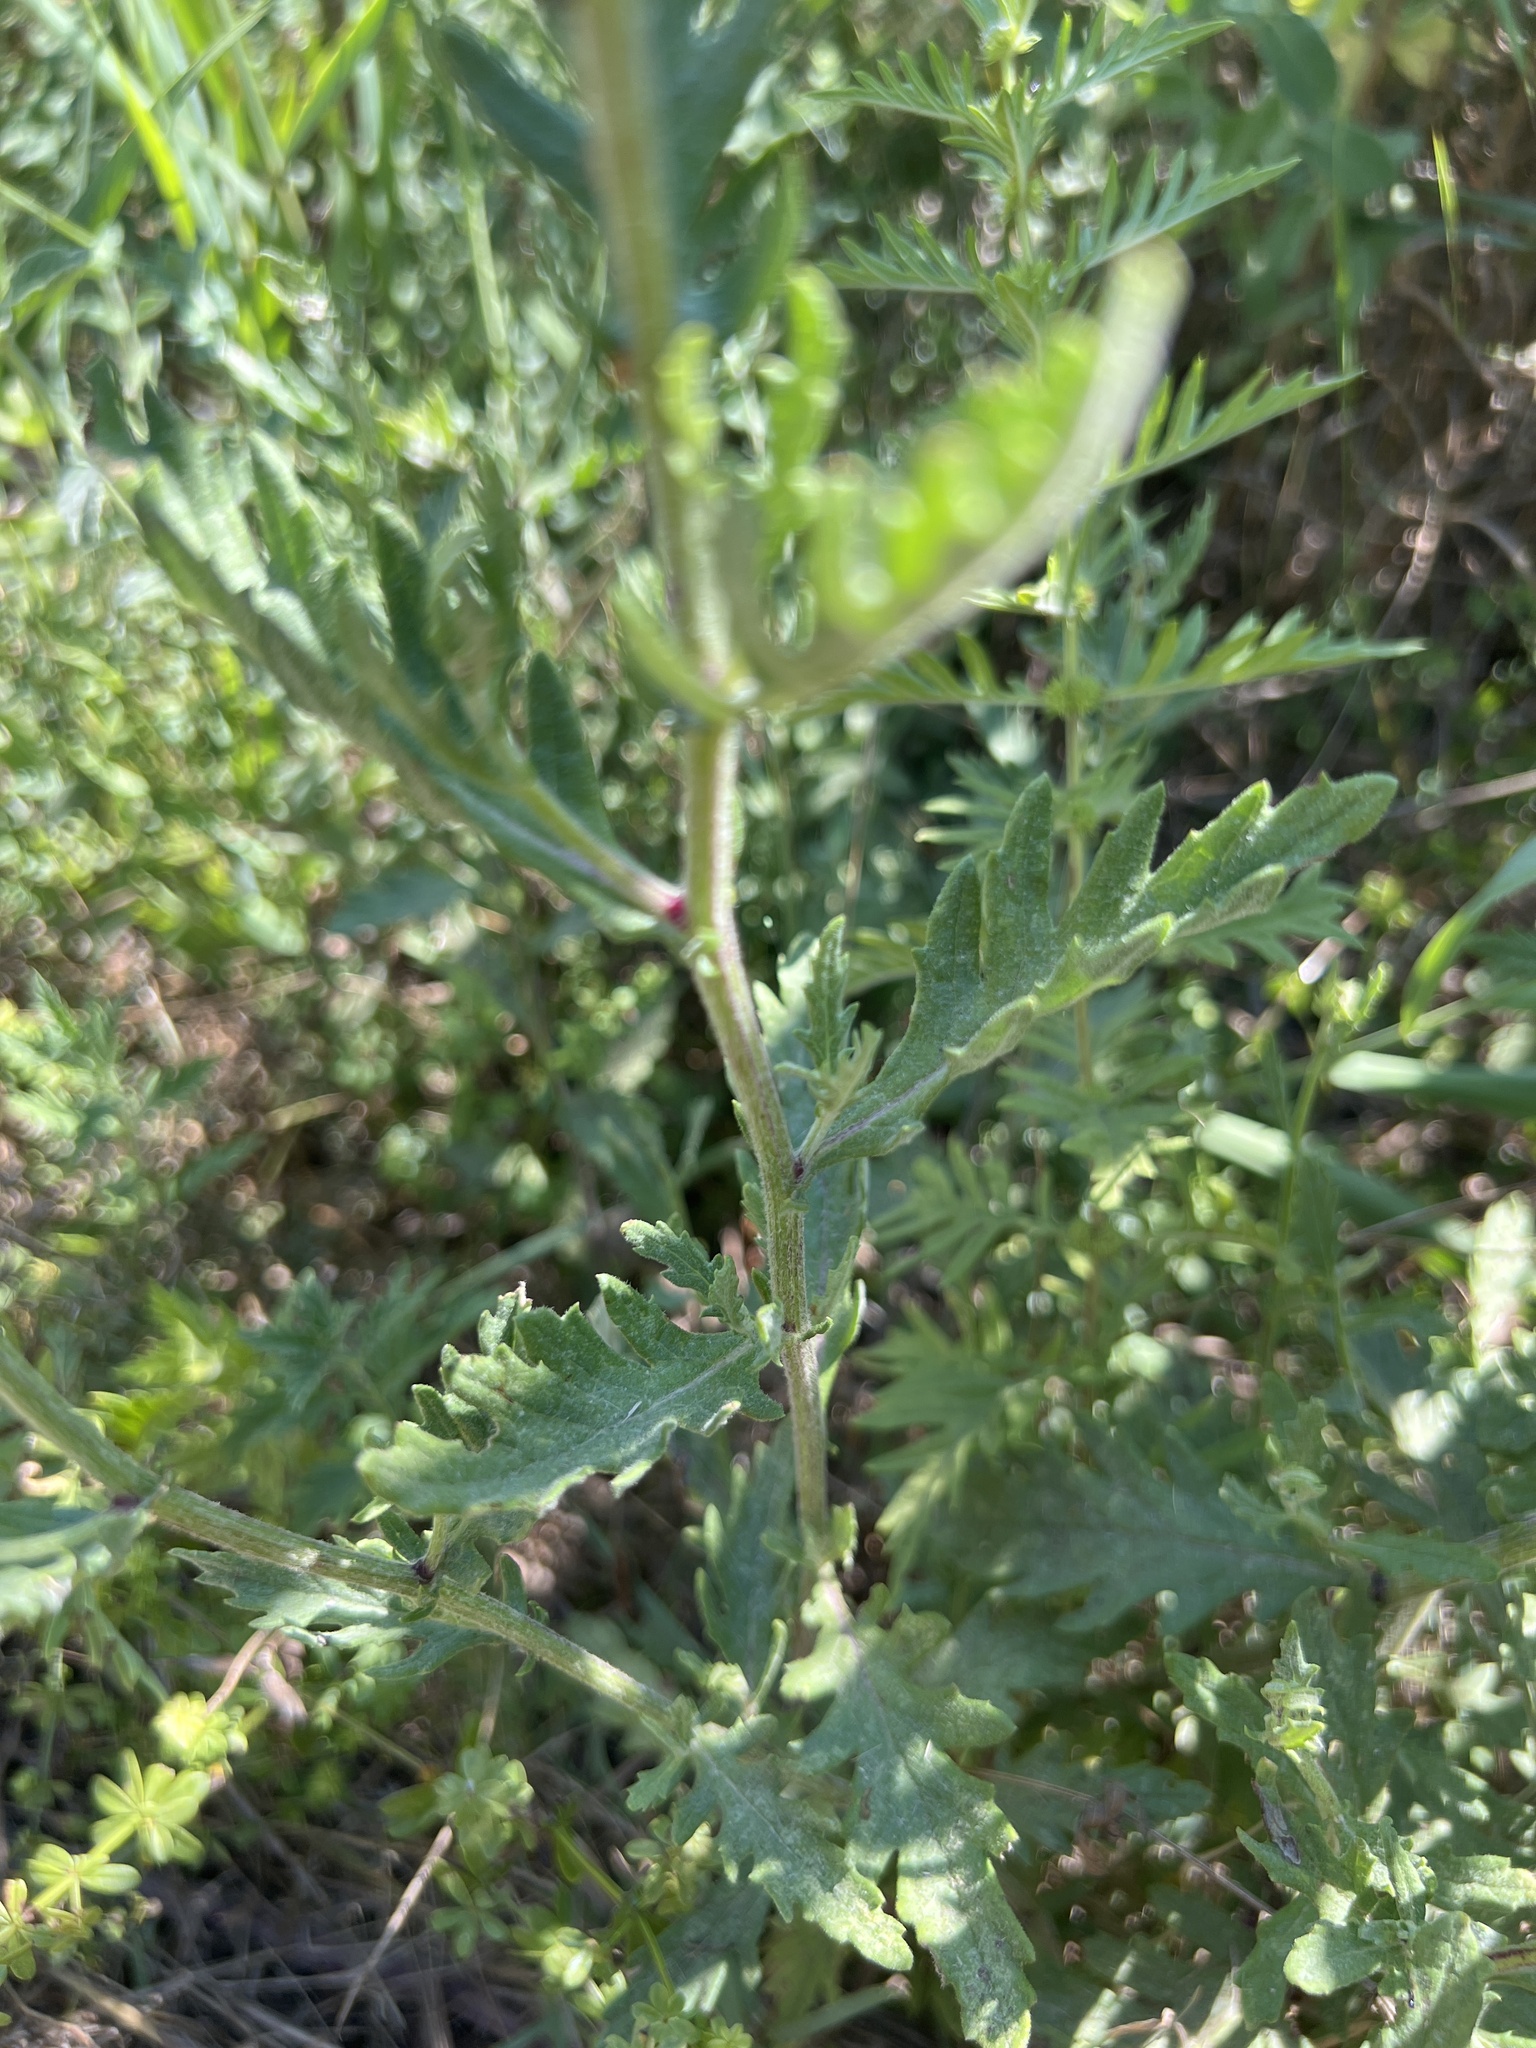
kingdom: Plantae
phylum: Tracheophyta
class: Magnoliopsida
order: Asterales
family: Asteraceae
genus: Jacobaea
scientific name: Jacobaea erucifolia
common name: Hoary ragwort
